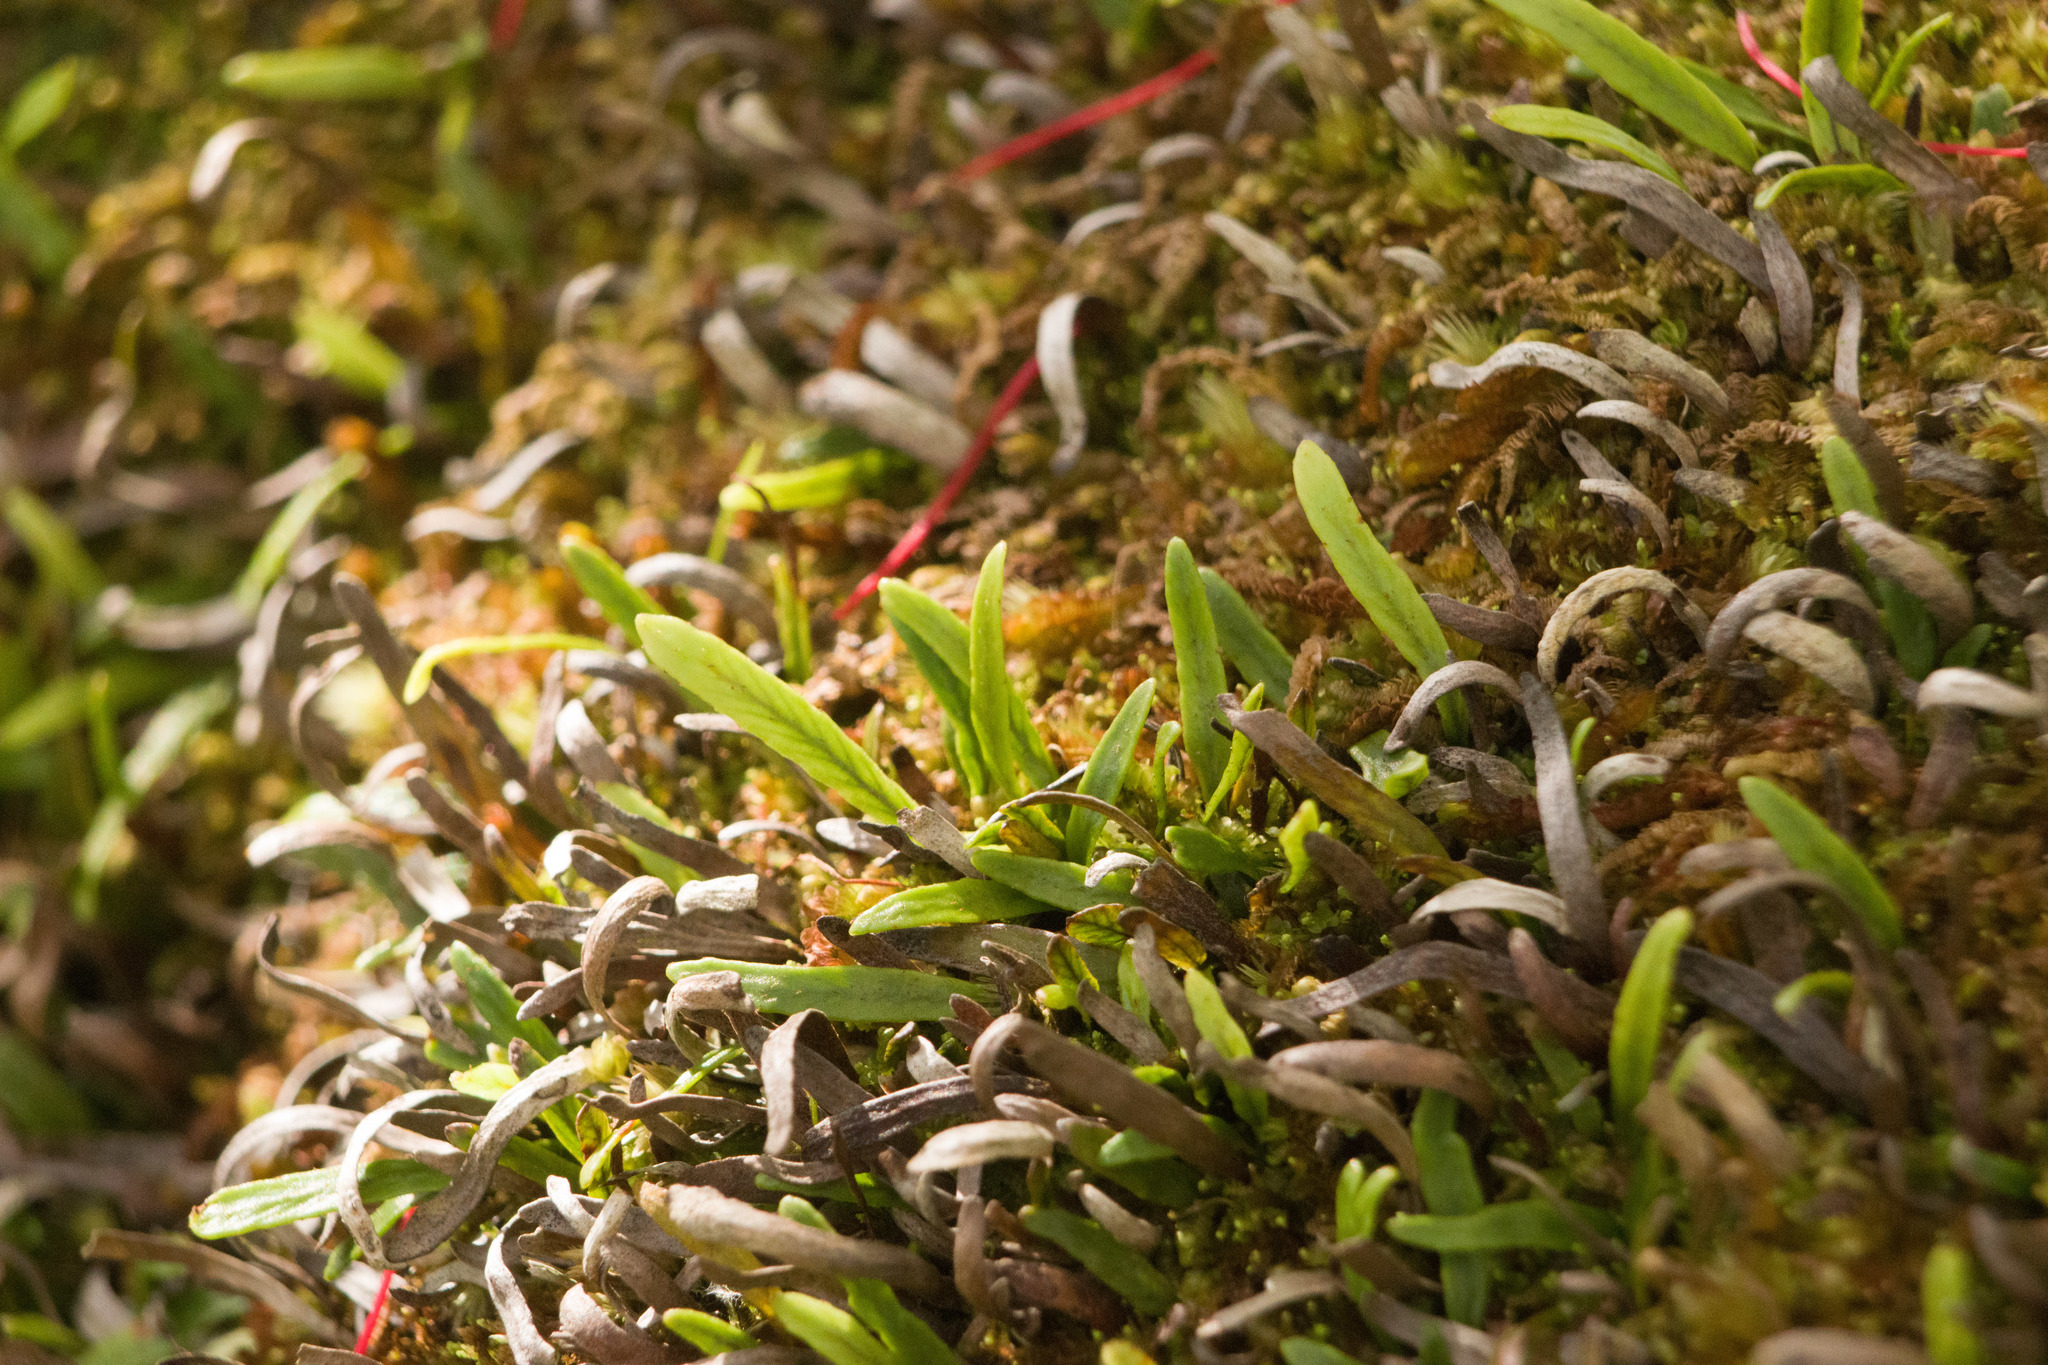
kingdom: Plantae
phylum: Tracheophyta
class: Polypodiopsida
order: Polypodiales
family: Polypodiaceae
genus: Adenophorus
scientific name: Adenophorus tenellus
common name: Kolokolo
